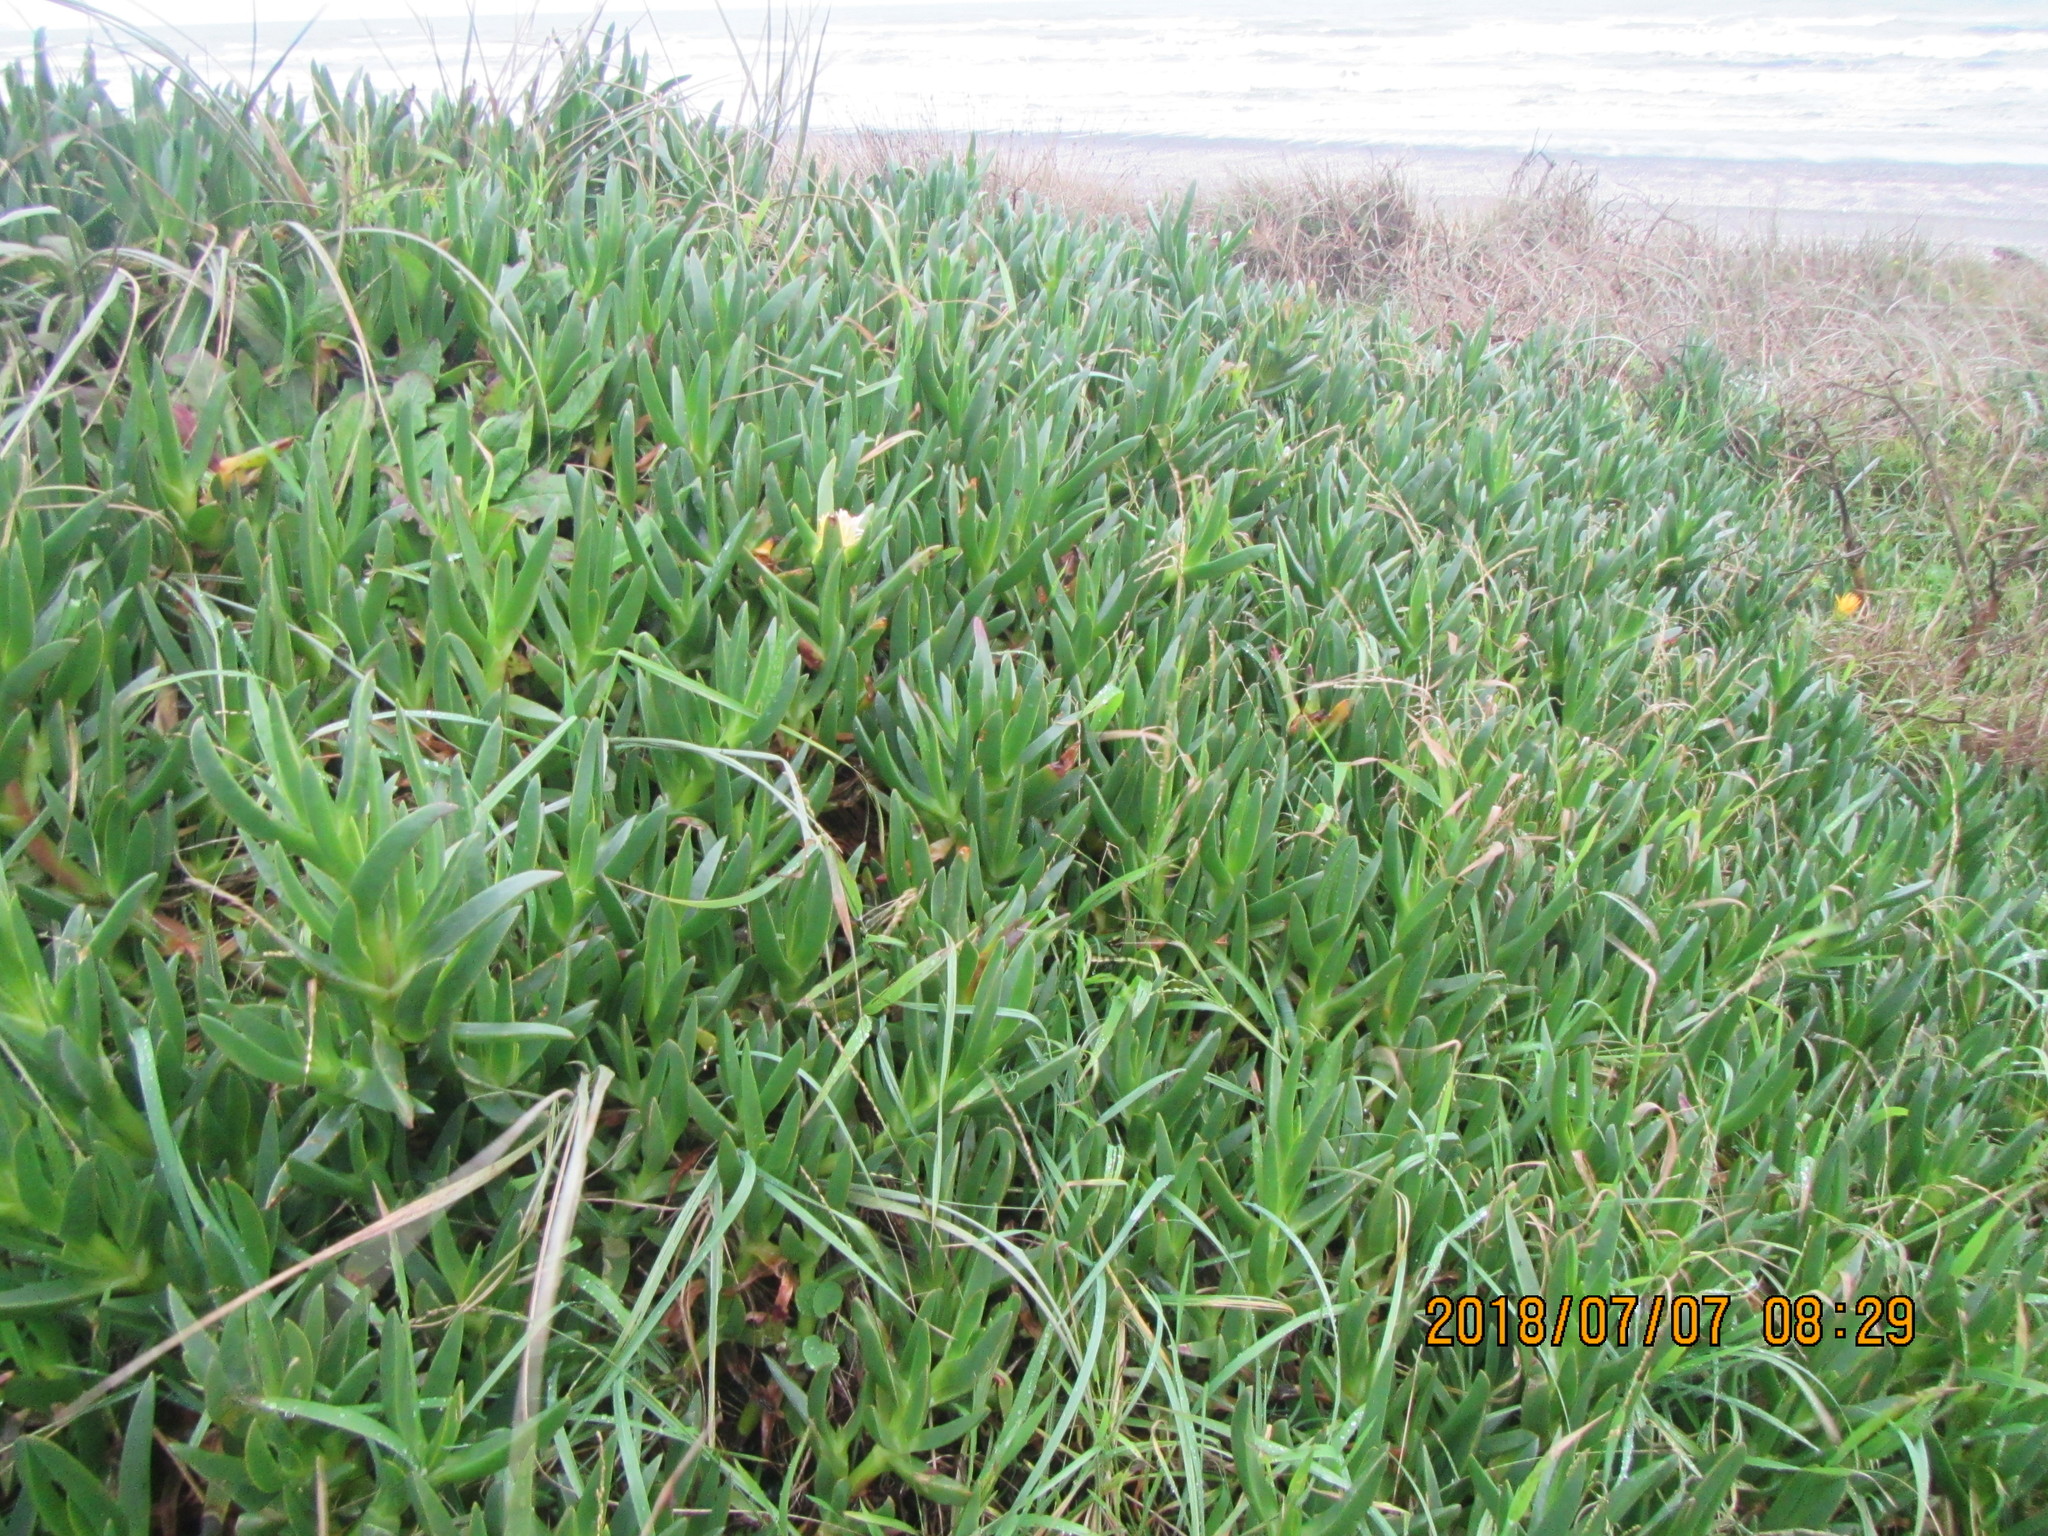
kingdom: Plantae
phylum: Tracheophyta
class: Magnoliopsida
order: Caryophyllales
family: Aizoaceae
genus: Carpobrotus
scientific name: Carpobrotus edulis
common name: Hottentot-fig
